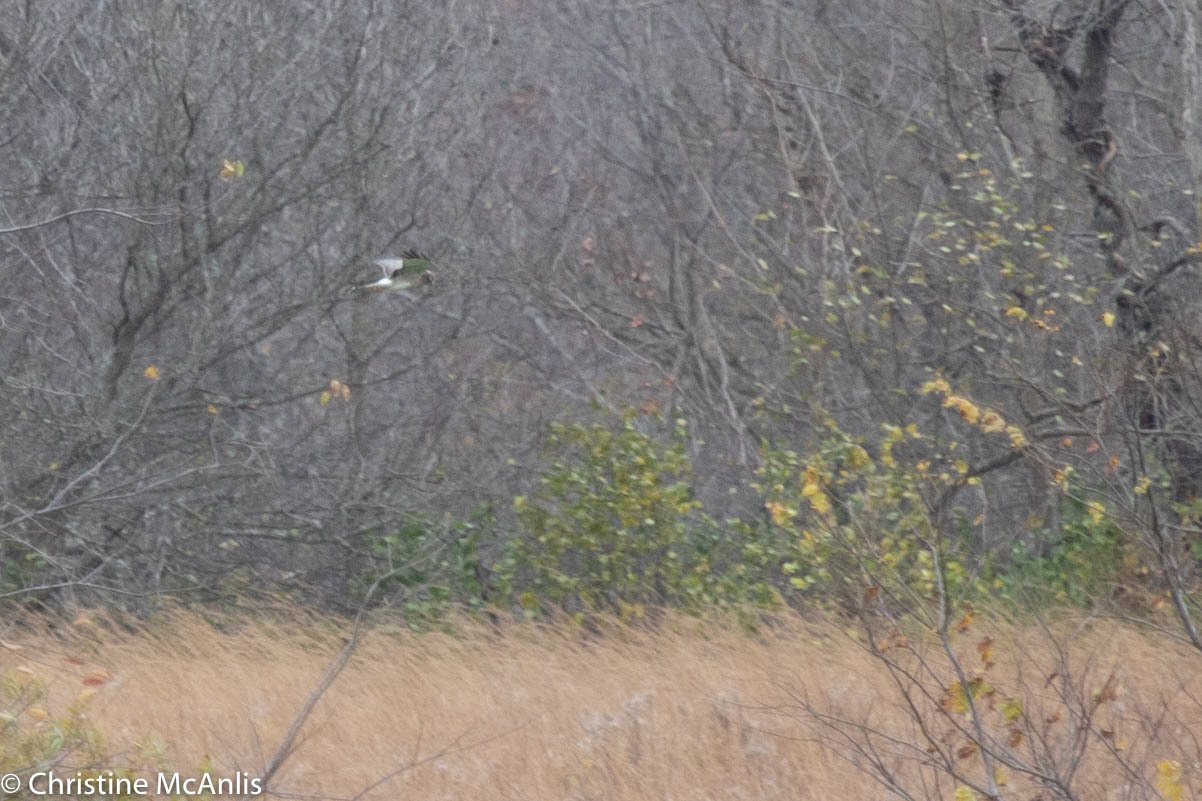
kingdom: Animalia
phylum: Chordata
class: Aves
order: Accipitriformes
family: Accipitridae
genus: Circus
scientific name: Circus cyaneus
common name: Hen harrier
